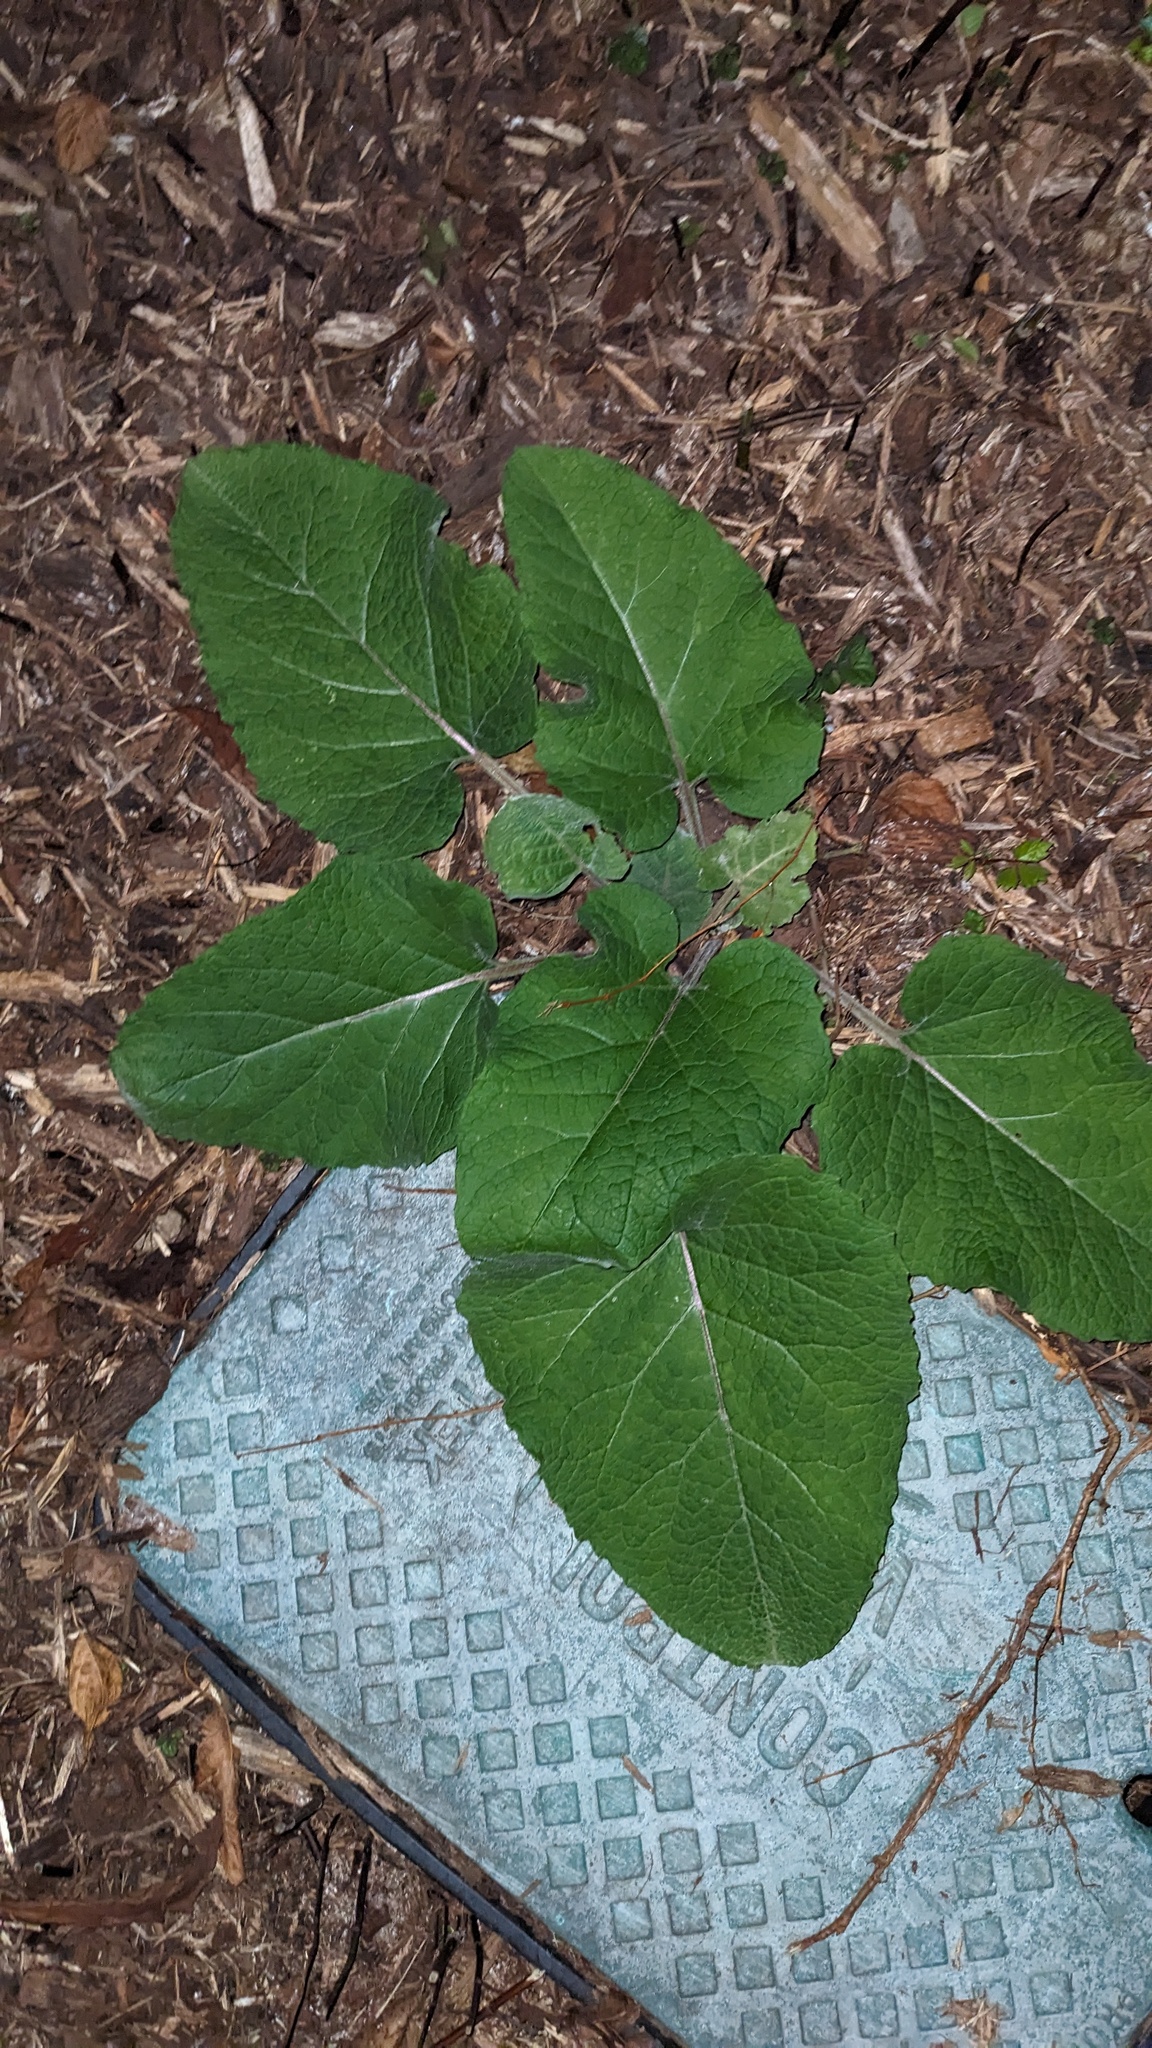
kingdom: Plantae
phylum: Tracheophyta
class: Magnoliopsida
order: Asterales
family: Asteraceae
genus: Arctium
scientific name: Arctium
